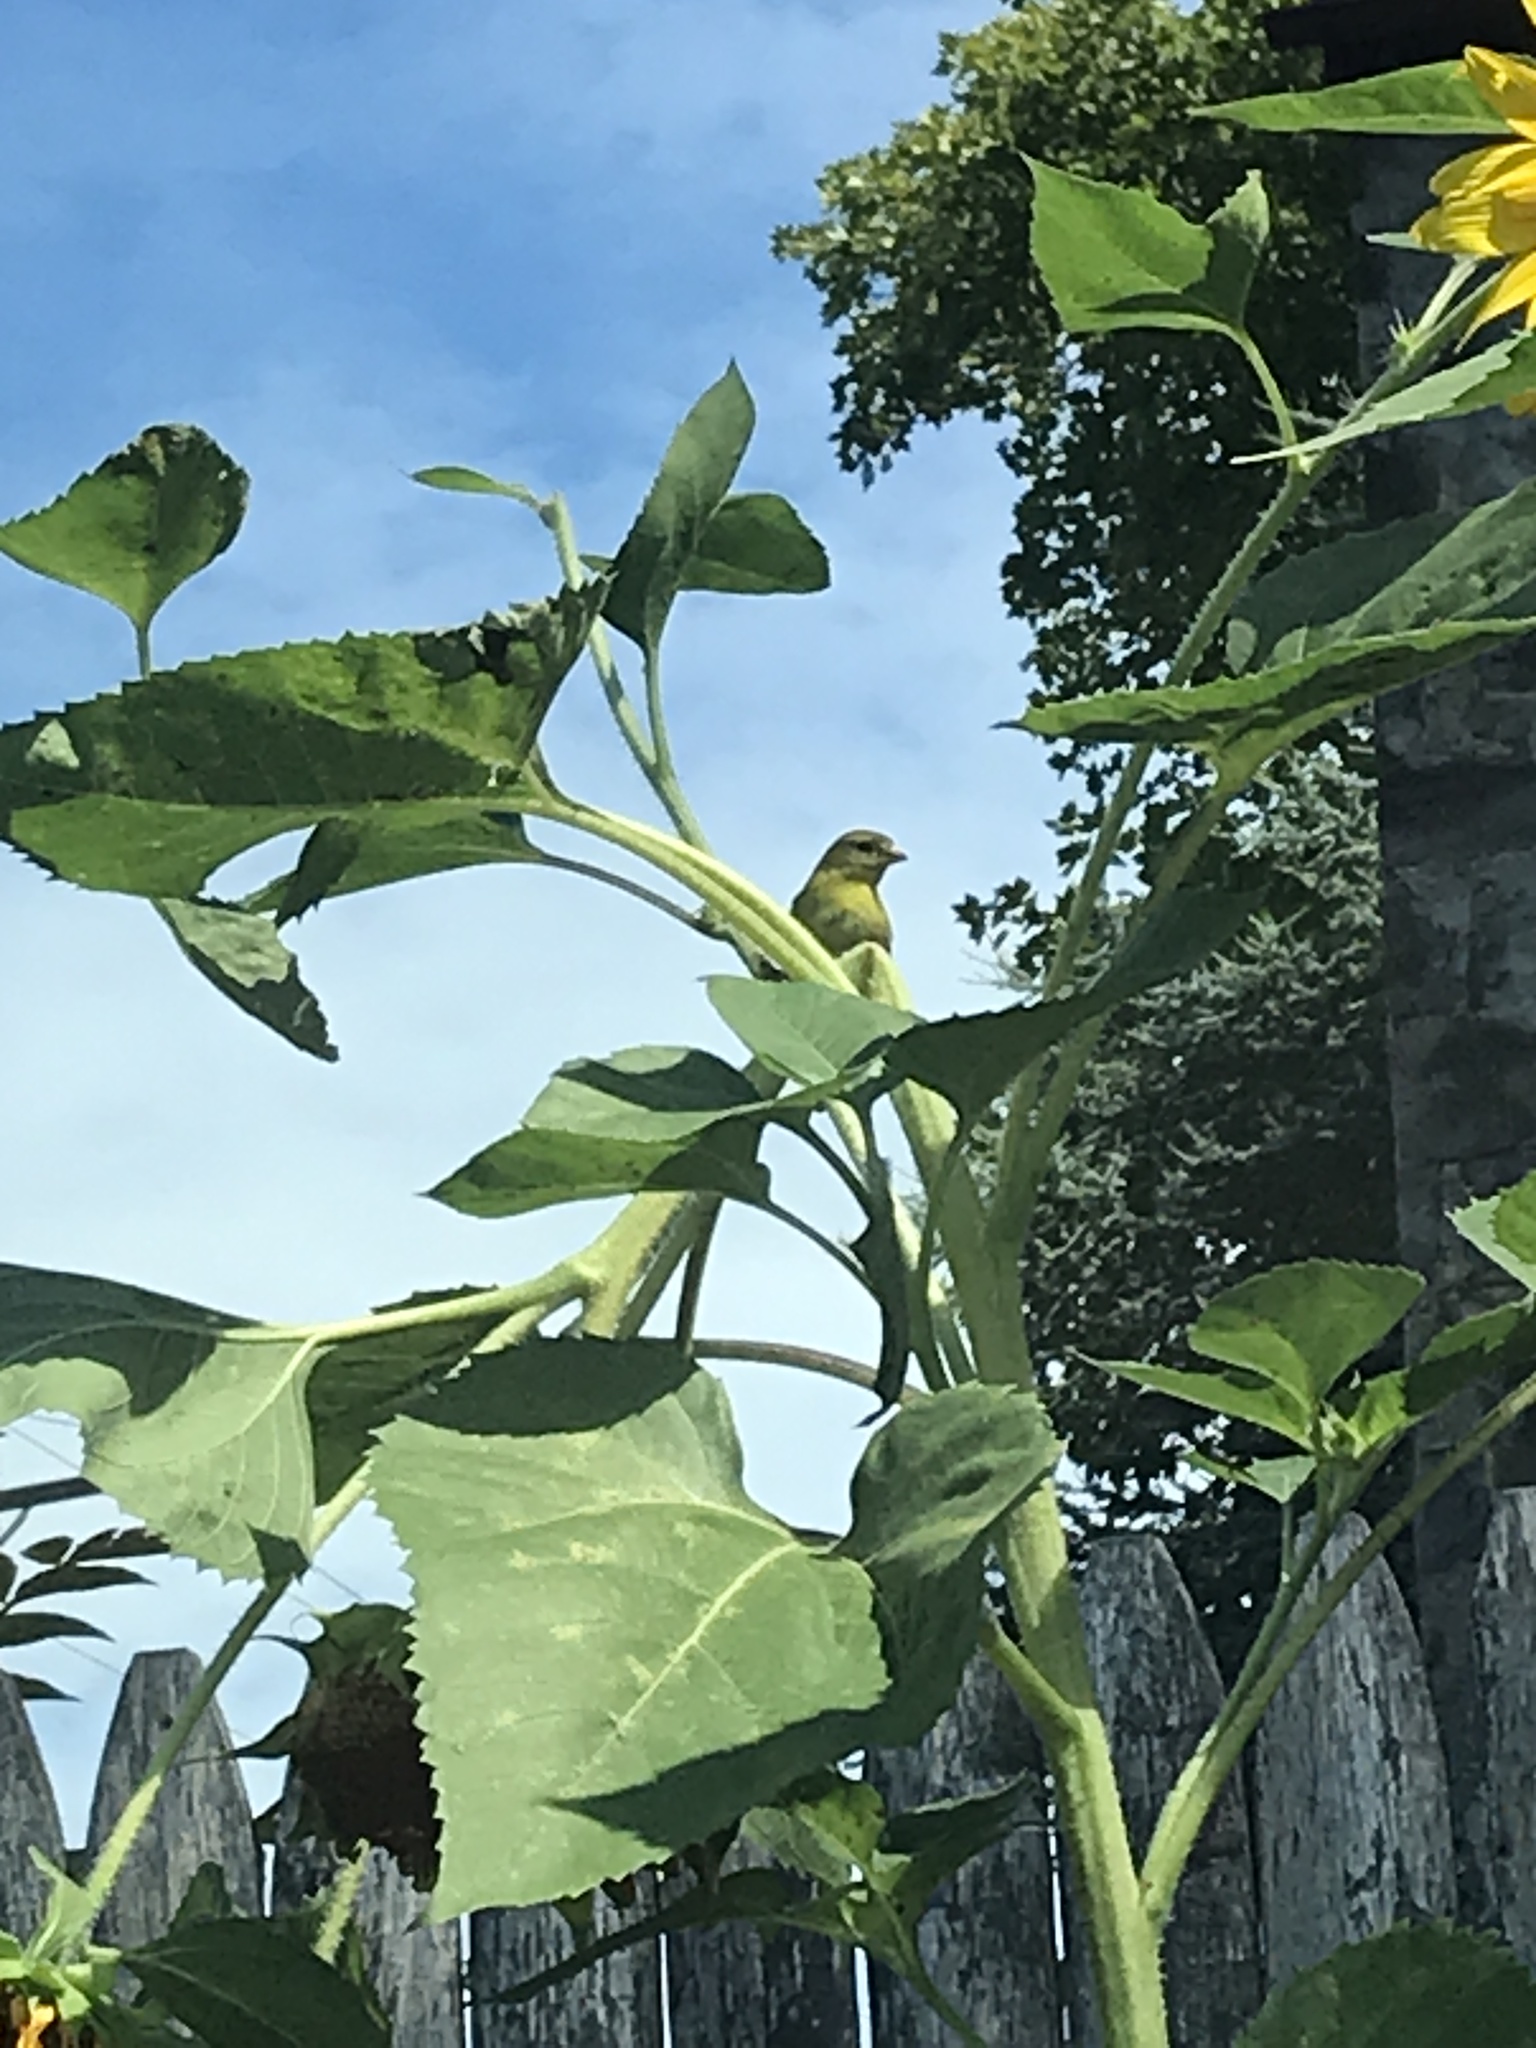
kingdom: Animalia
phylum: Chordata
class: Aves
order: Passeriformes
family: Fringillidae
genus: Spinus
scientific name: Spinus tristis
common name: American goldfinch
